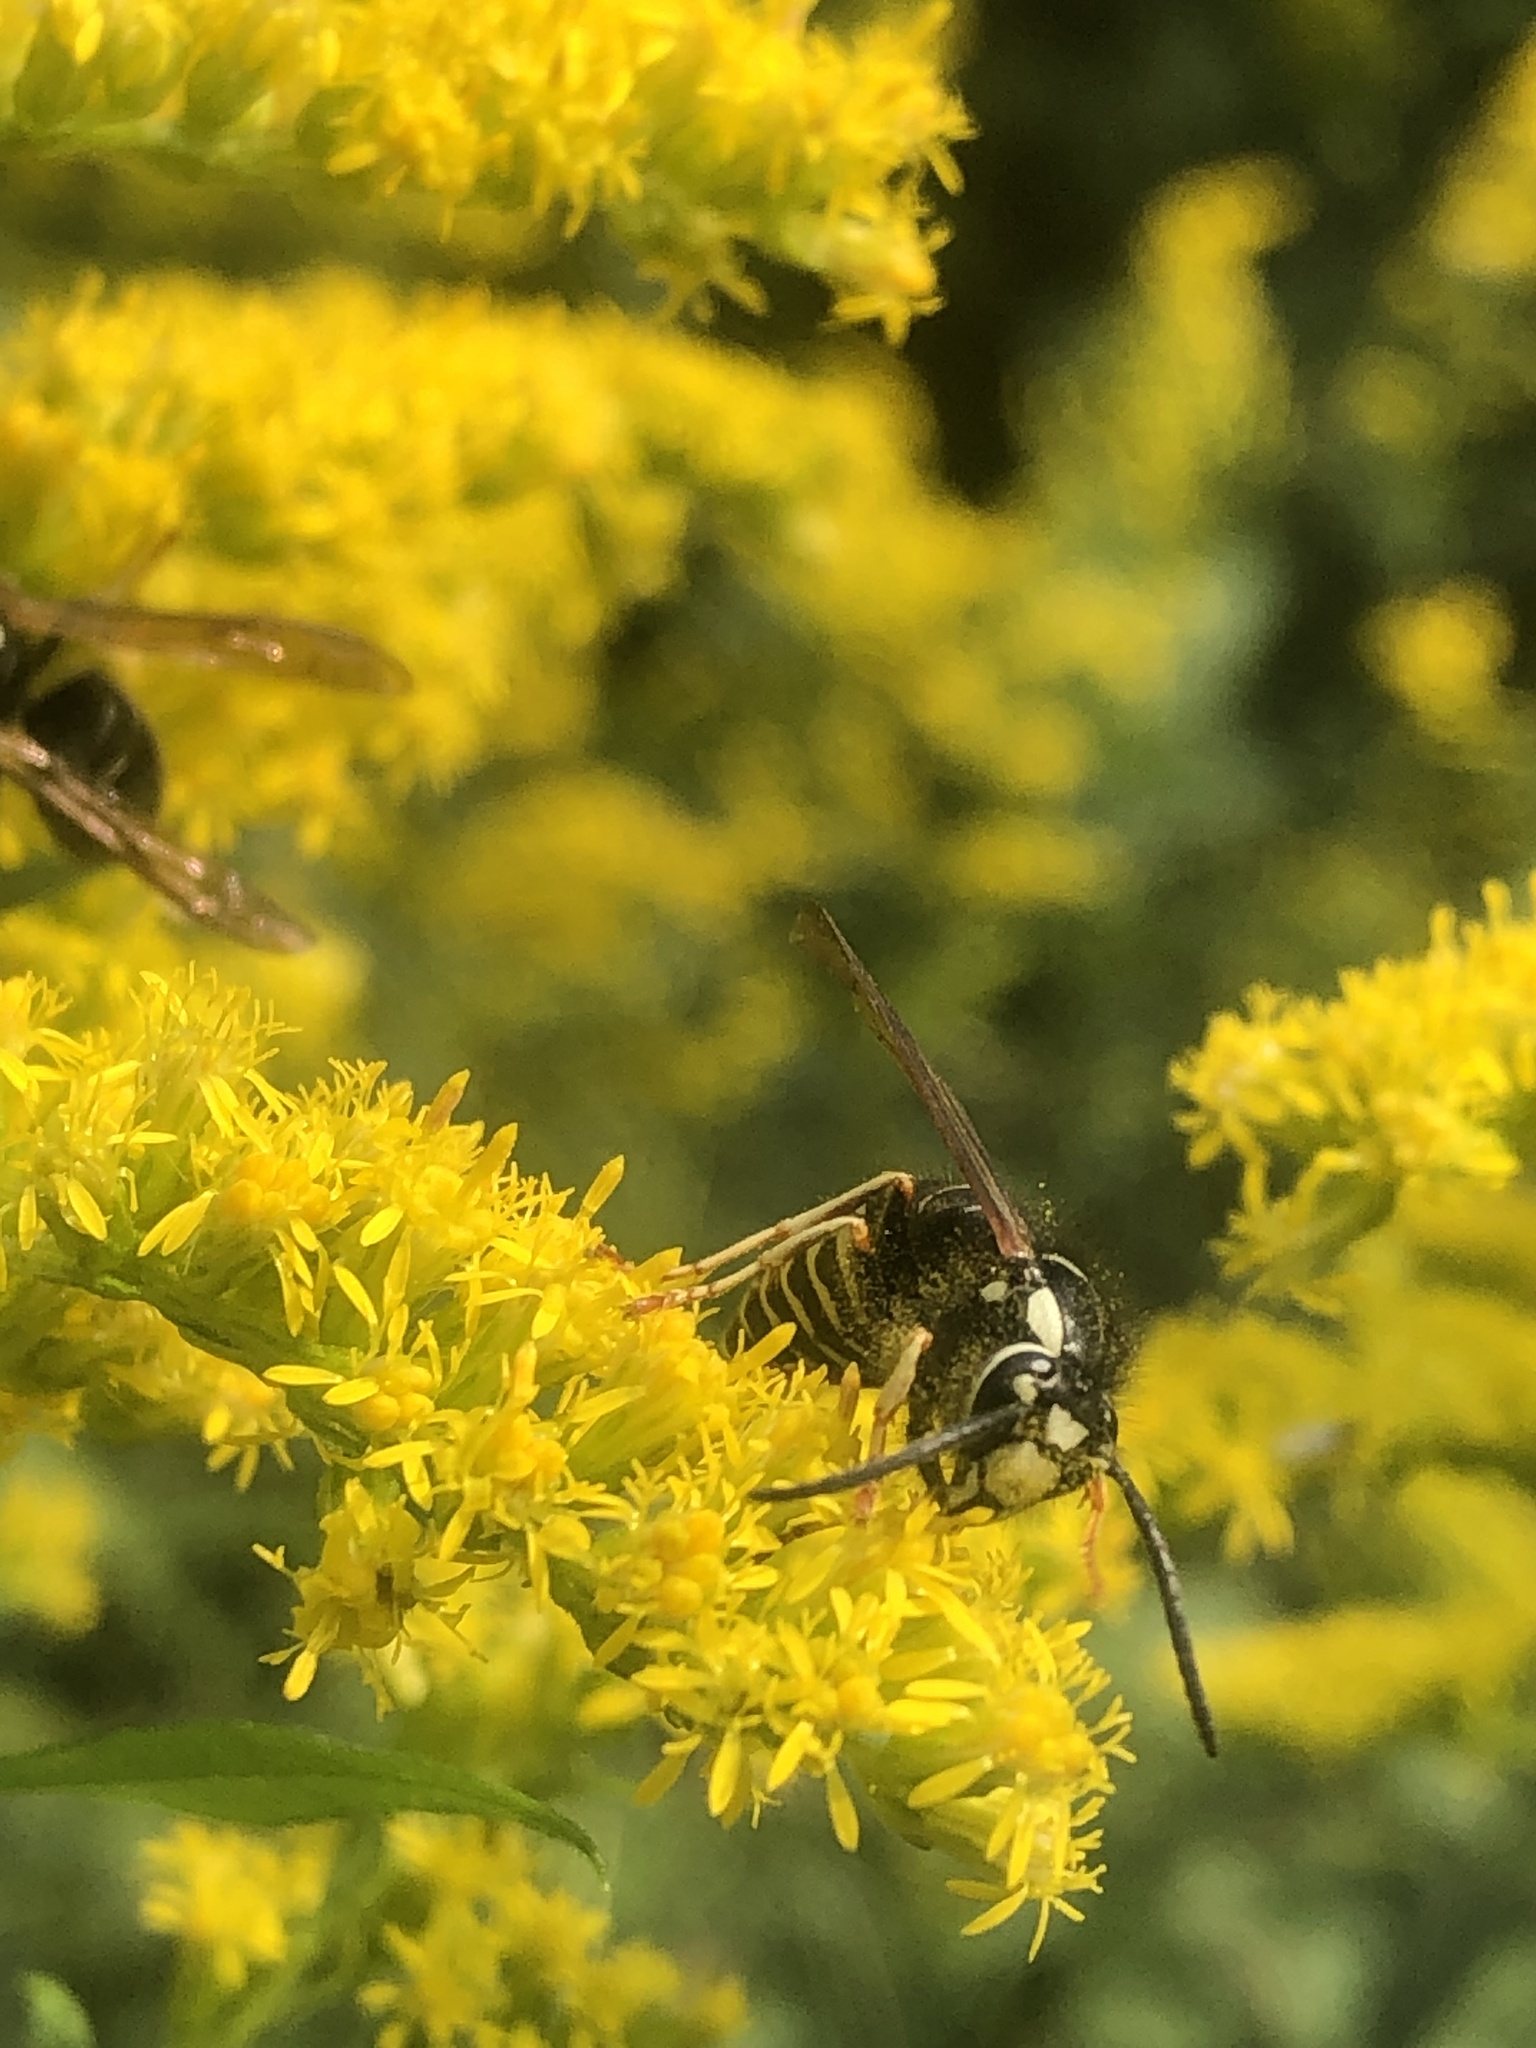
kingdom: Animalia
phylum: Arthropoda
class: Insecta
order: Hymenoptera
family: Vespidae
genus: Vespula
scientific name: Vespula consobrina
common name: Blackjacket
